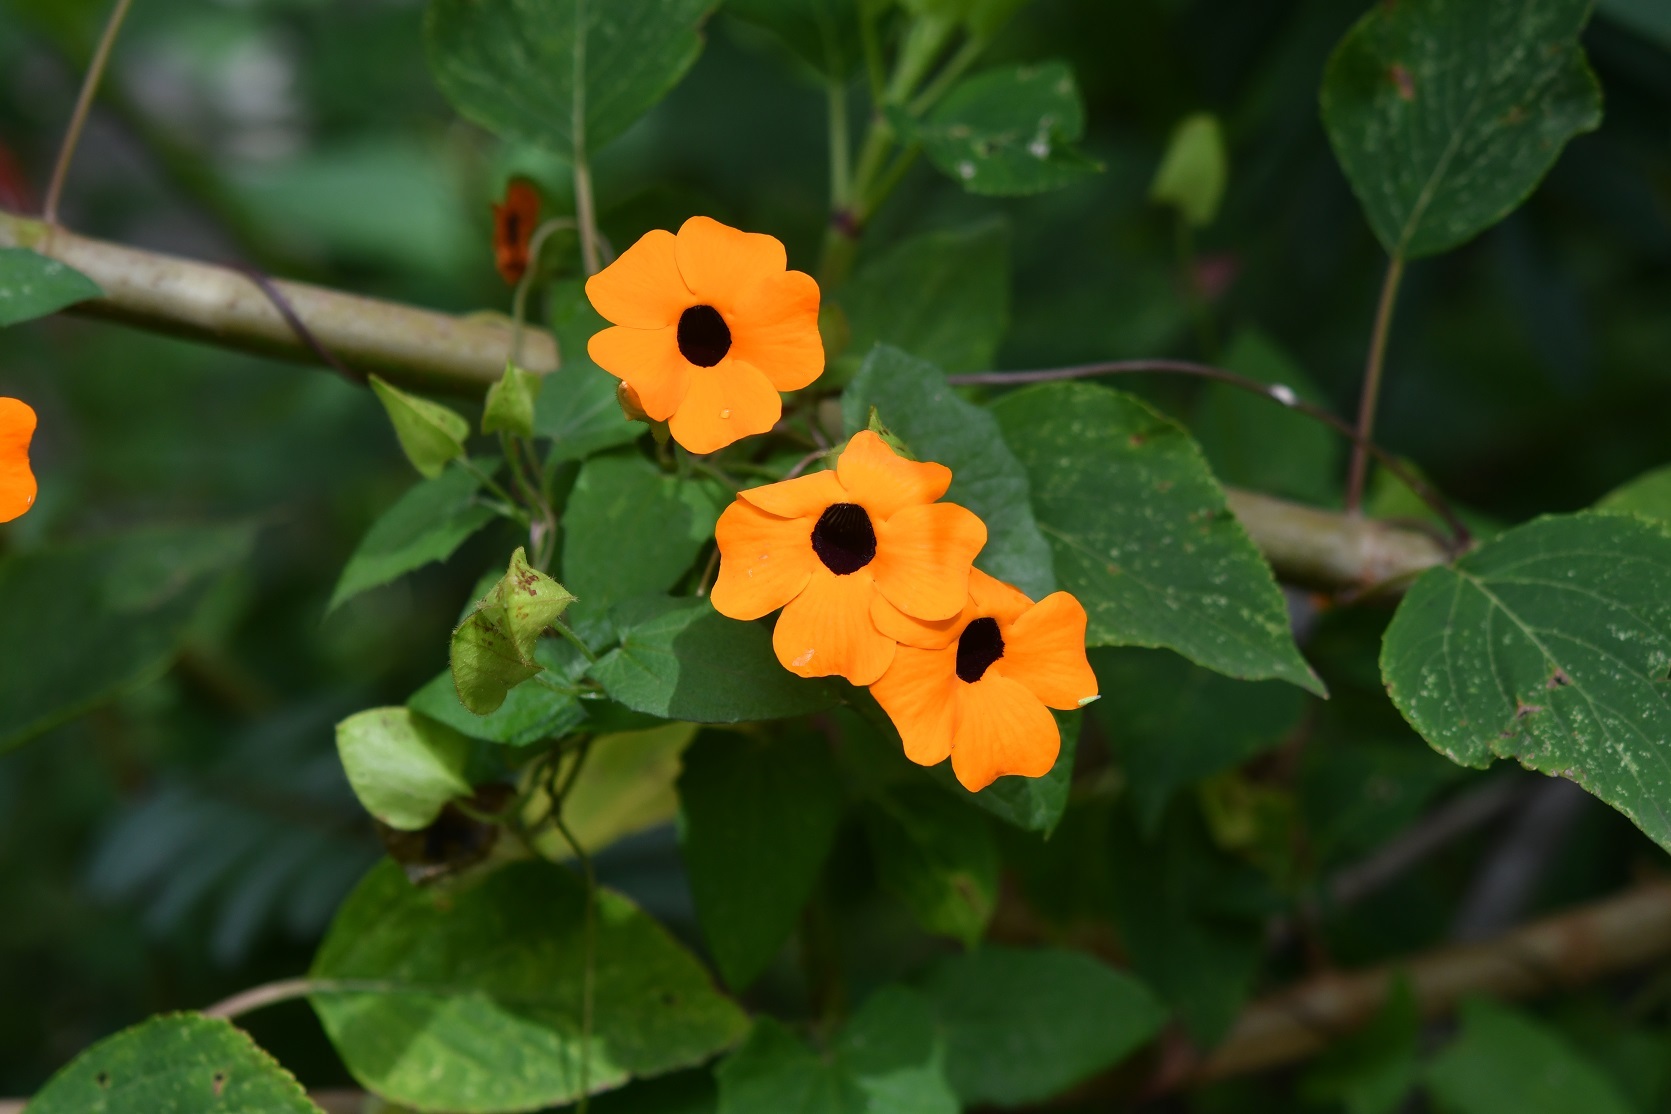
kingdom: Plantae
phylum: Tracheophyta
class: Magnoliopsida
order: Lamiales
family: Acanthaceae
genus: Thunbergia
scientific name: Thunbergia alata
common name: Blackeyed susan vine
